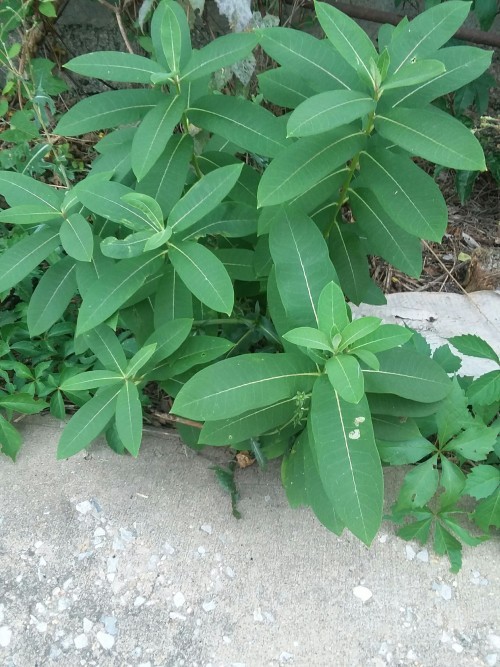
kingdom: Plantae
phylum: Tracheophyta
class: Magnoliopsida
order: Gentianales
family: Apocynaceae
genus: Asclepias
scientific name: Asclepias syriaca
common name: Common milkweed
